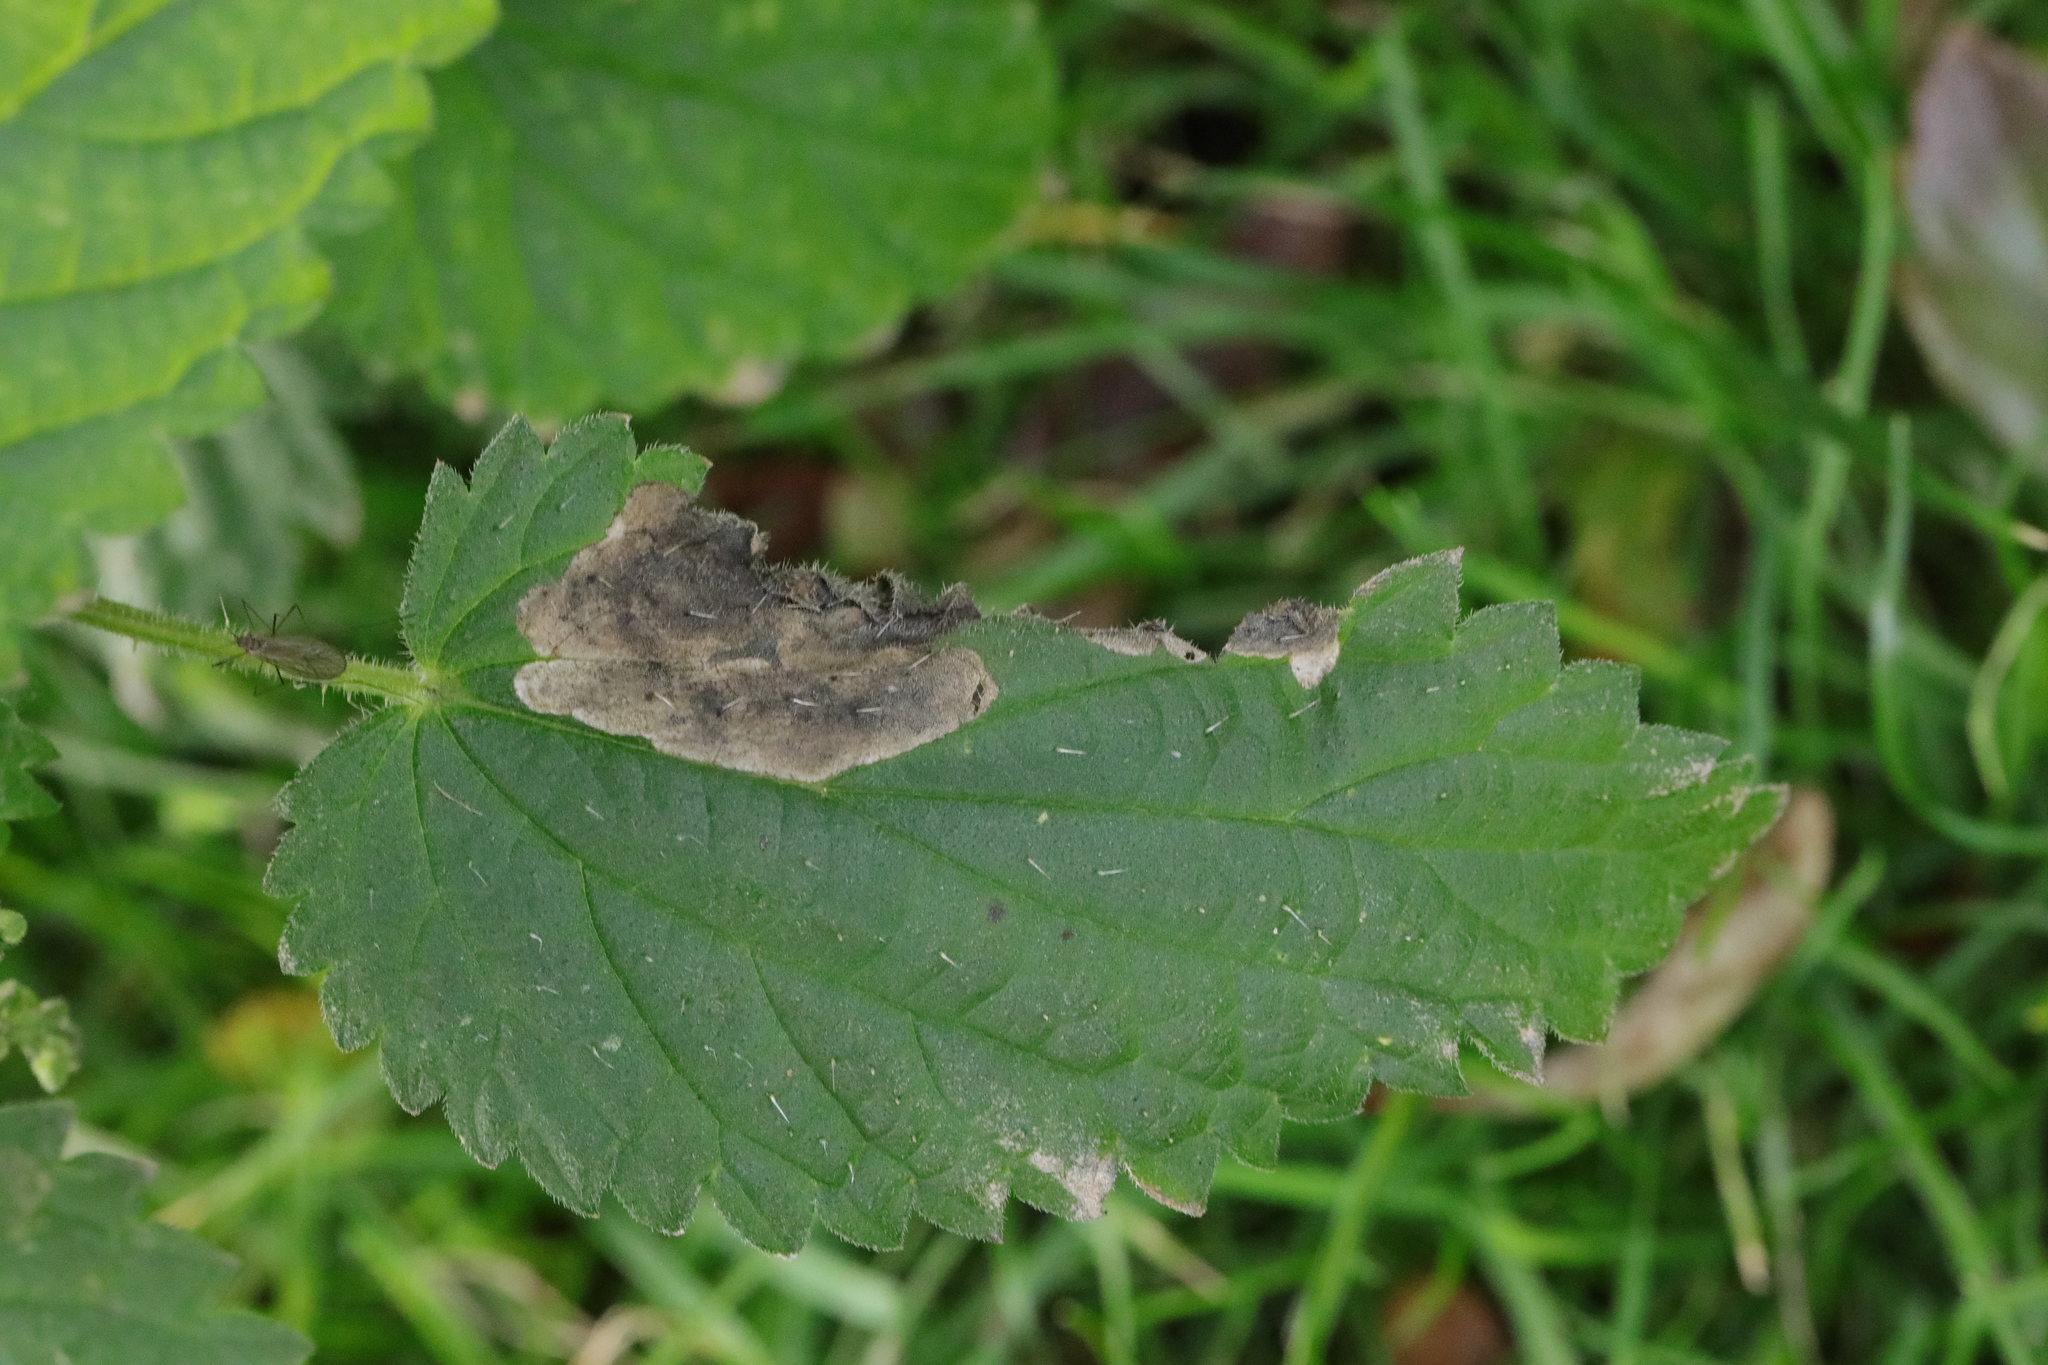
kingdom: Animalia
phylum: Arthropoda
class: Insecta
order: Diptera
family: Agromyzidae
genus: Agromyza
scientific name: Agromyza anthracina
